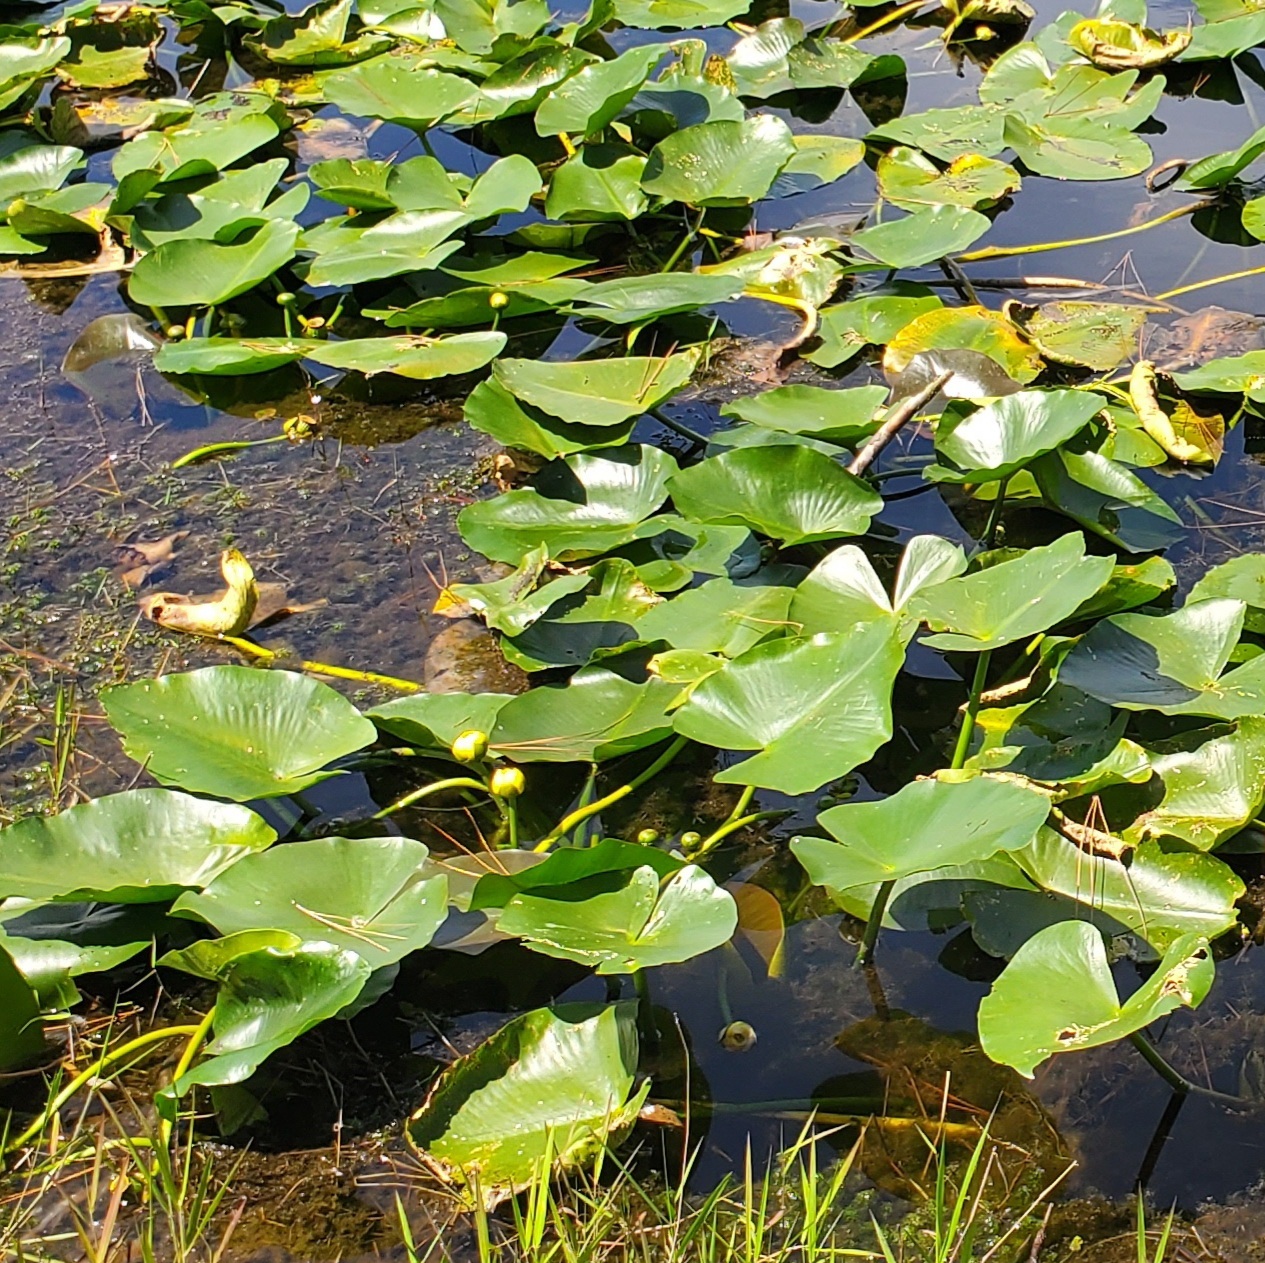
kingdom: Plantae
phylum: Tracheophyta
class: Magnoliopsida
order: Nymphaeales
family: Nymphaeaceae
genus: Nuphar
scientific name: Nuphar advena
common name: Spatter-dock
